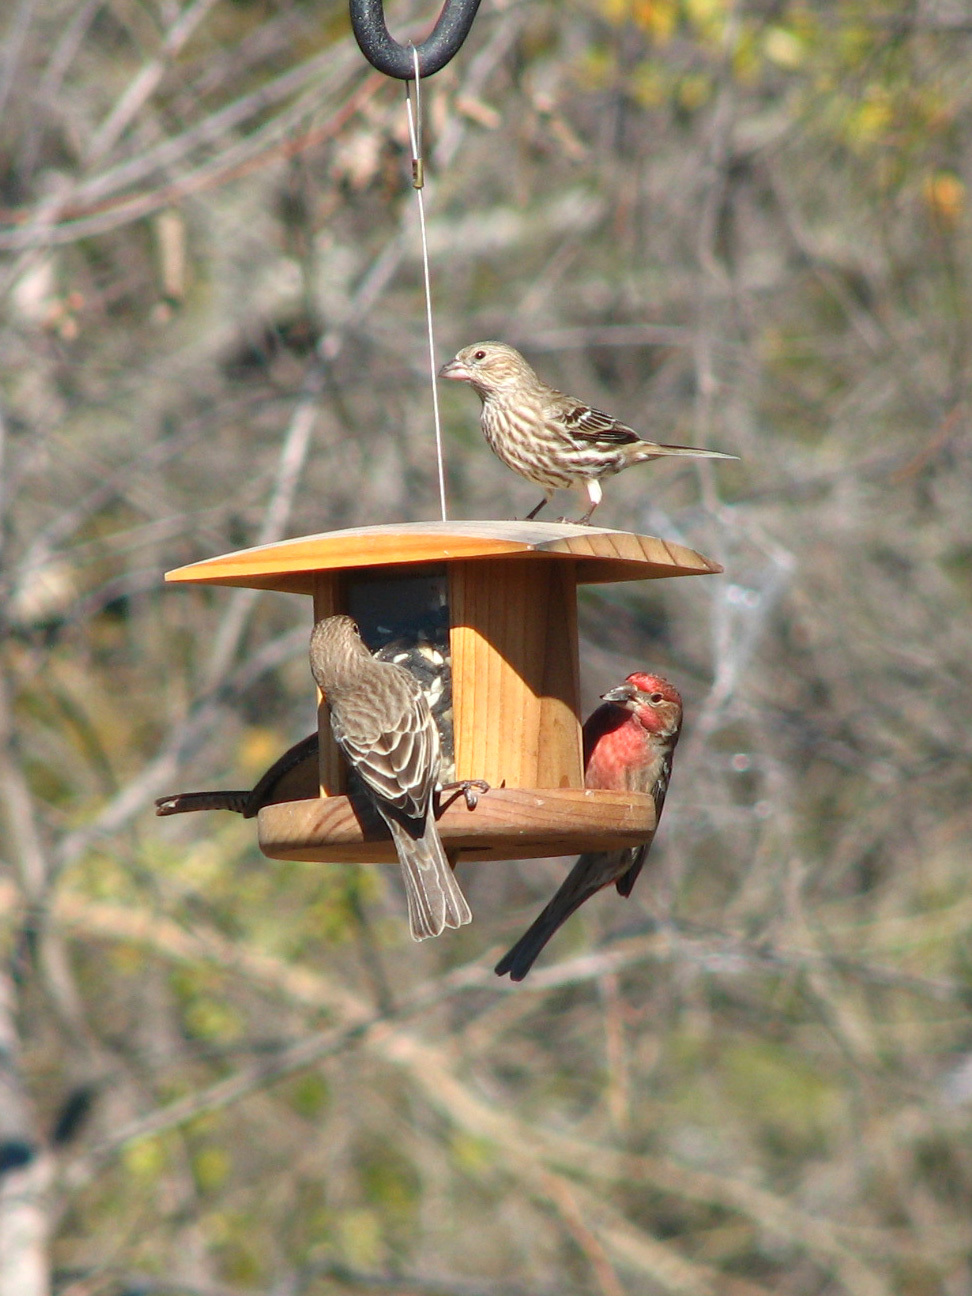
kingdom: Animalia
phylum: Chordata
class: Aves
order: Passeriformes
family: Fringillidae
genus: Haemorhous
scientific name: Haemorhous mexicanus
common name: House finch
